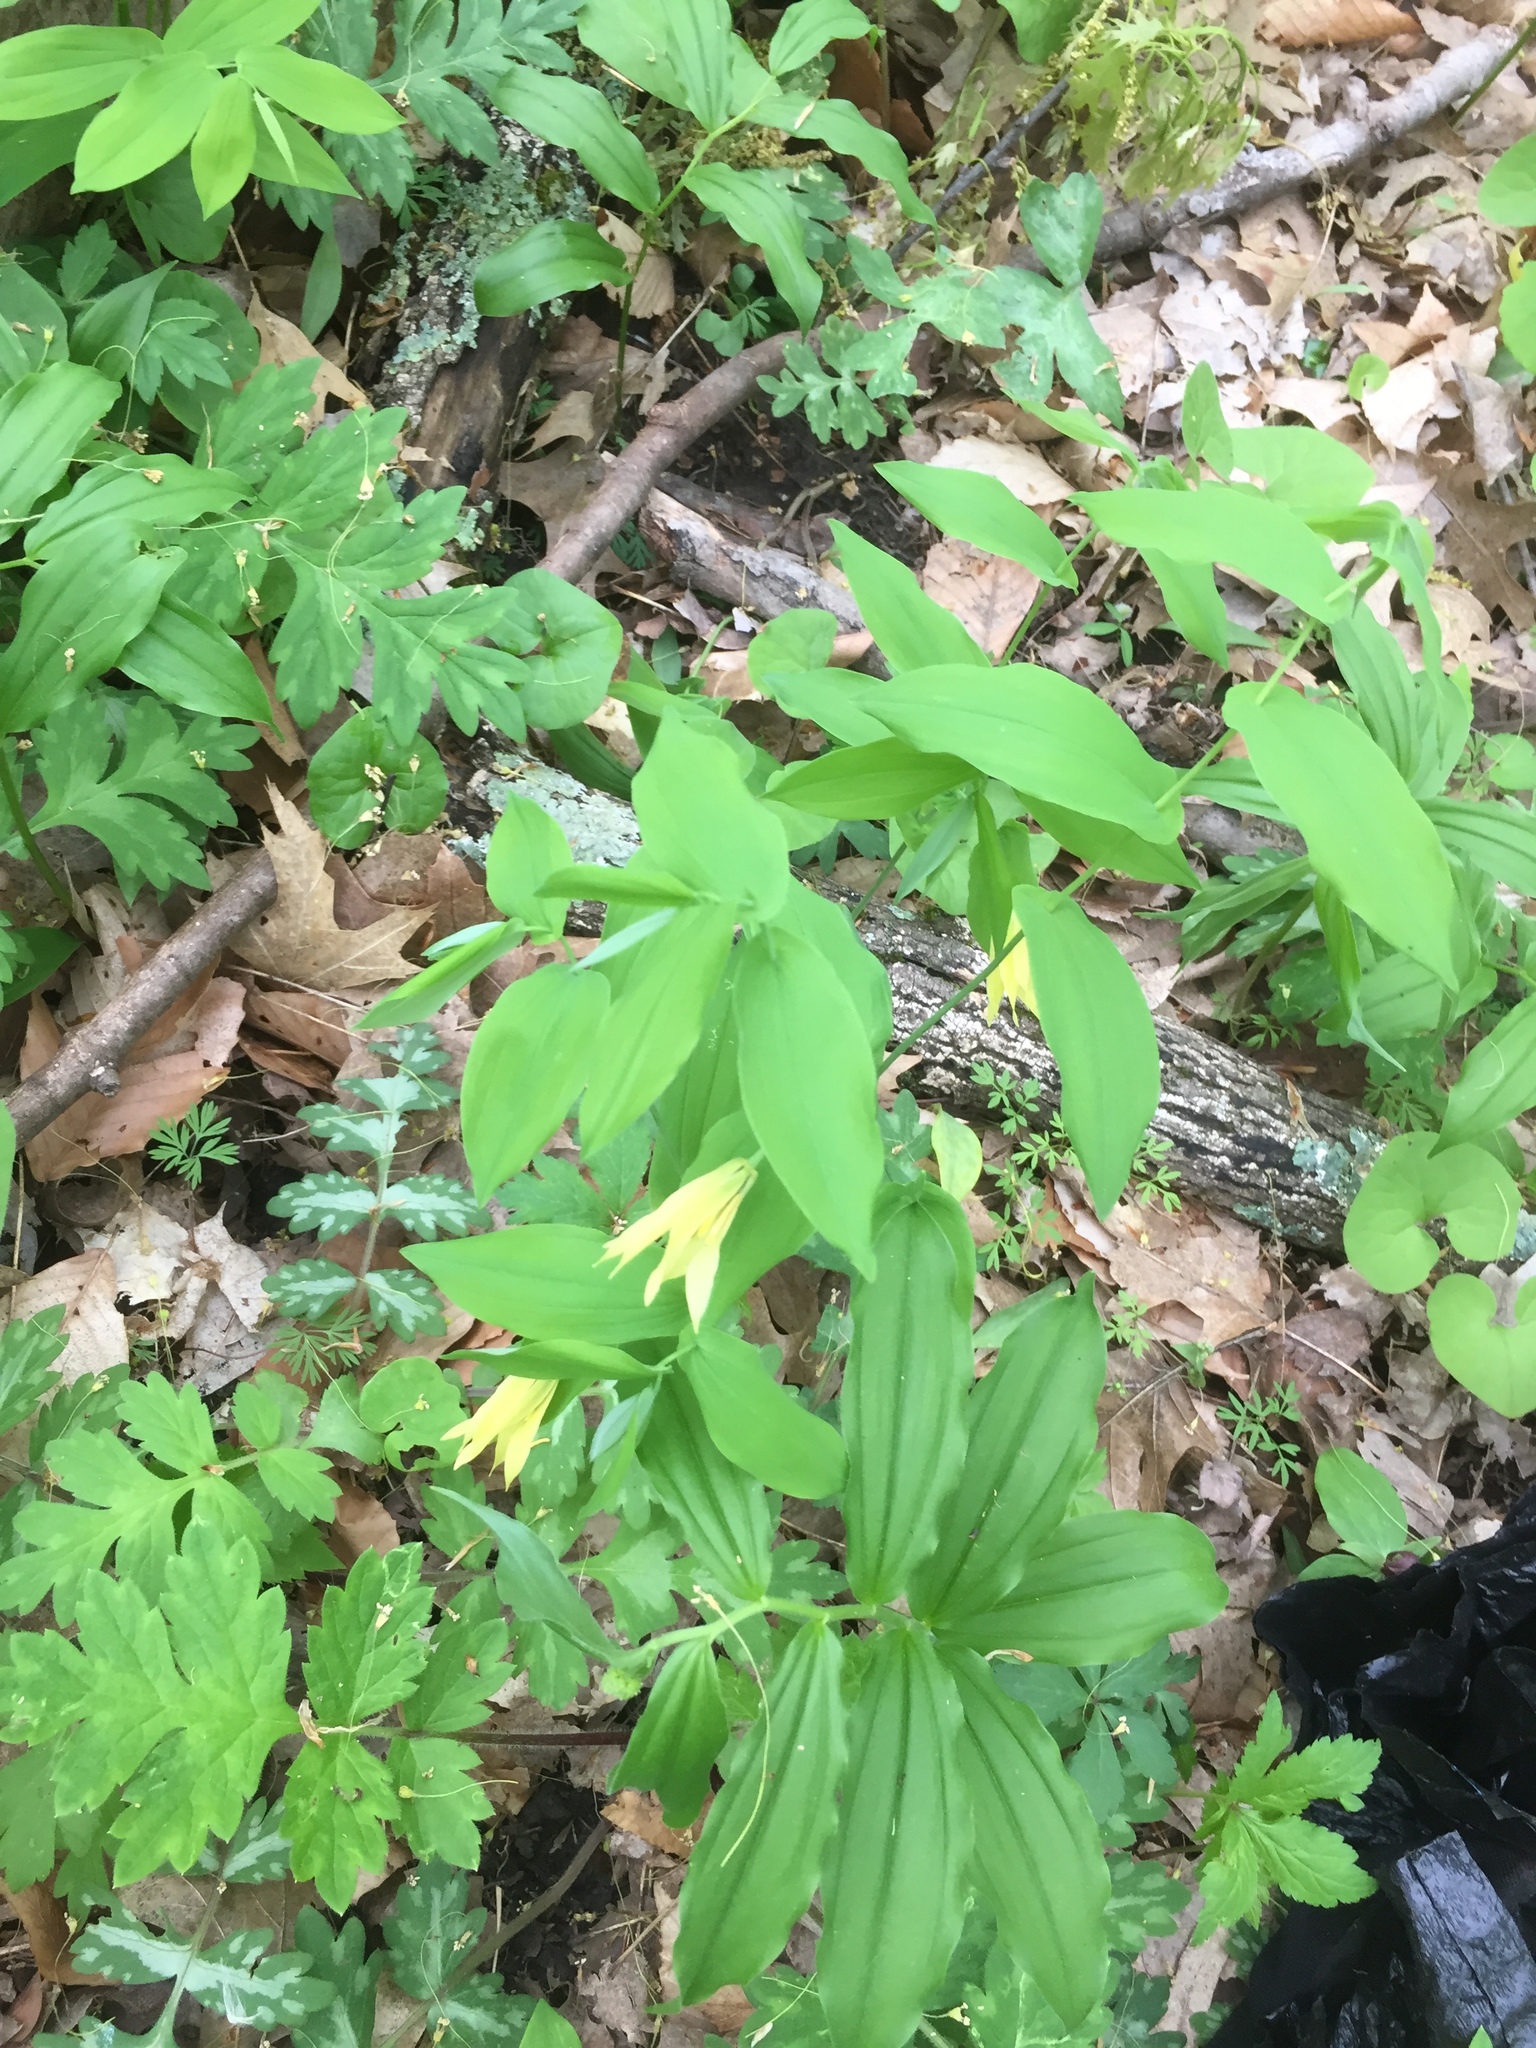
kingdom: Plantae
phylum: Tracheophyta
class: Liliopsida
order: Liliales
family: Colchicaceae
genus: Uvularia
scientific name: Uvularia grandiflora
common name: Bellwort
